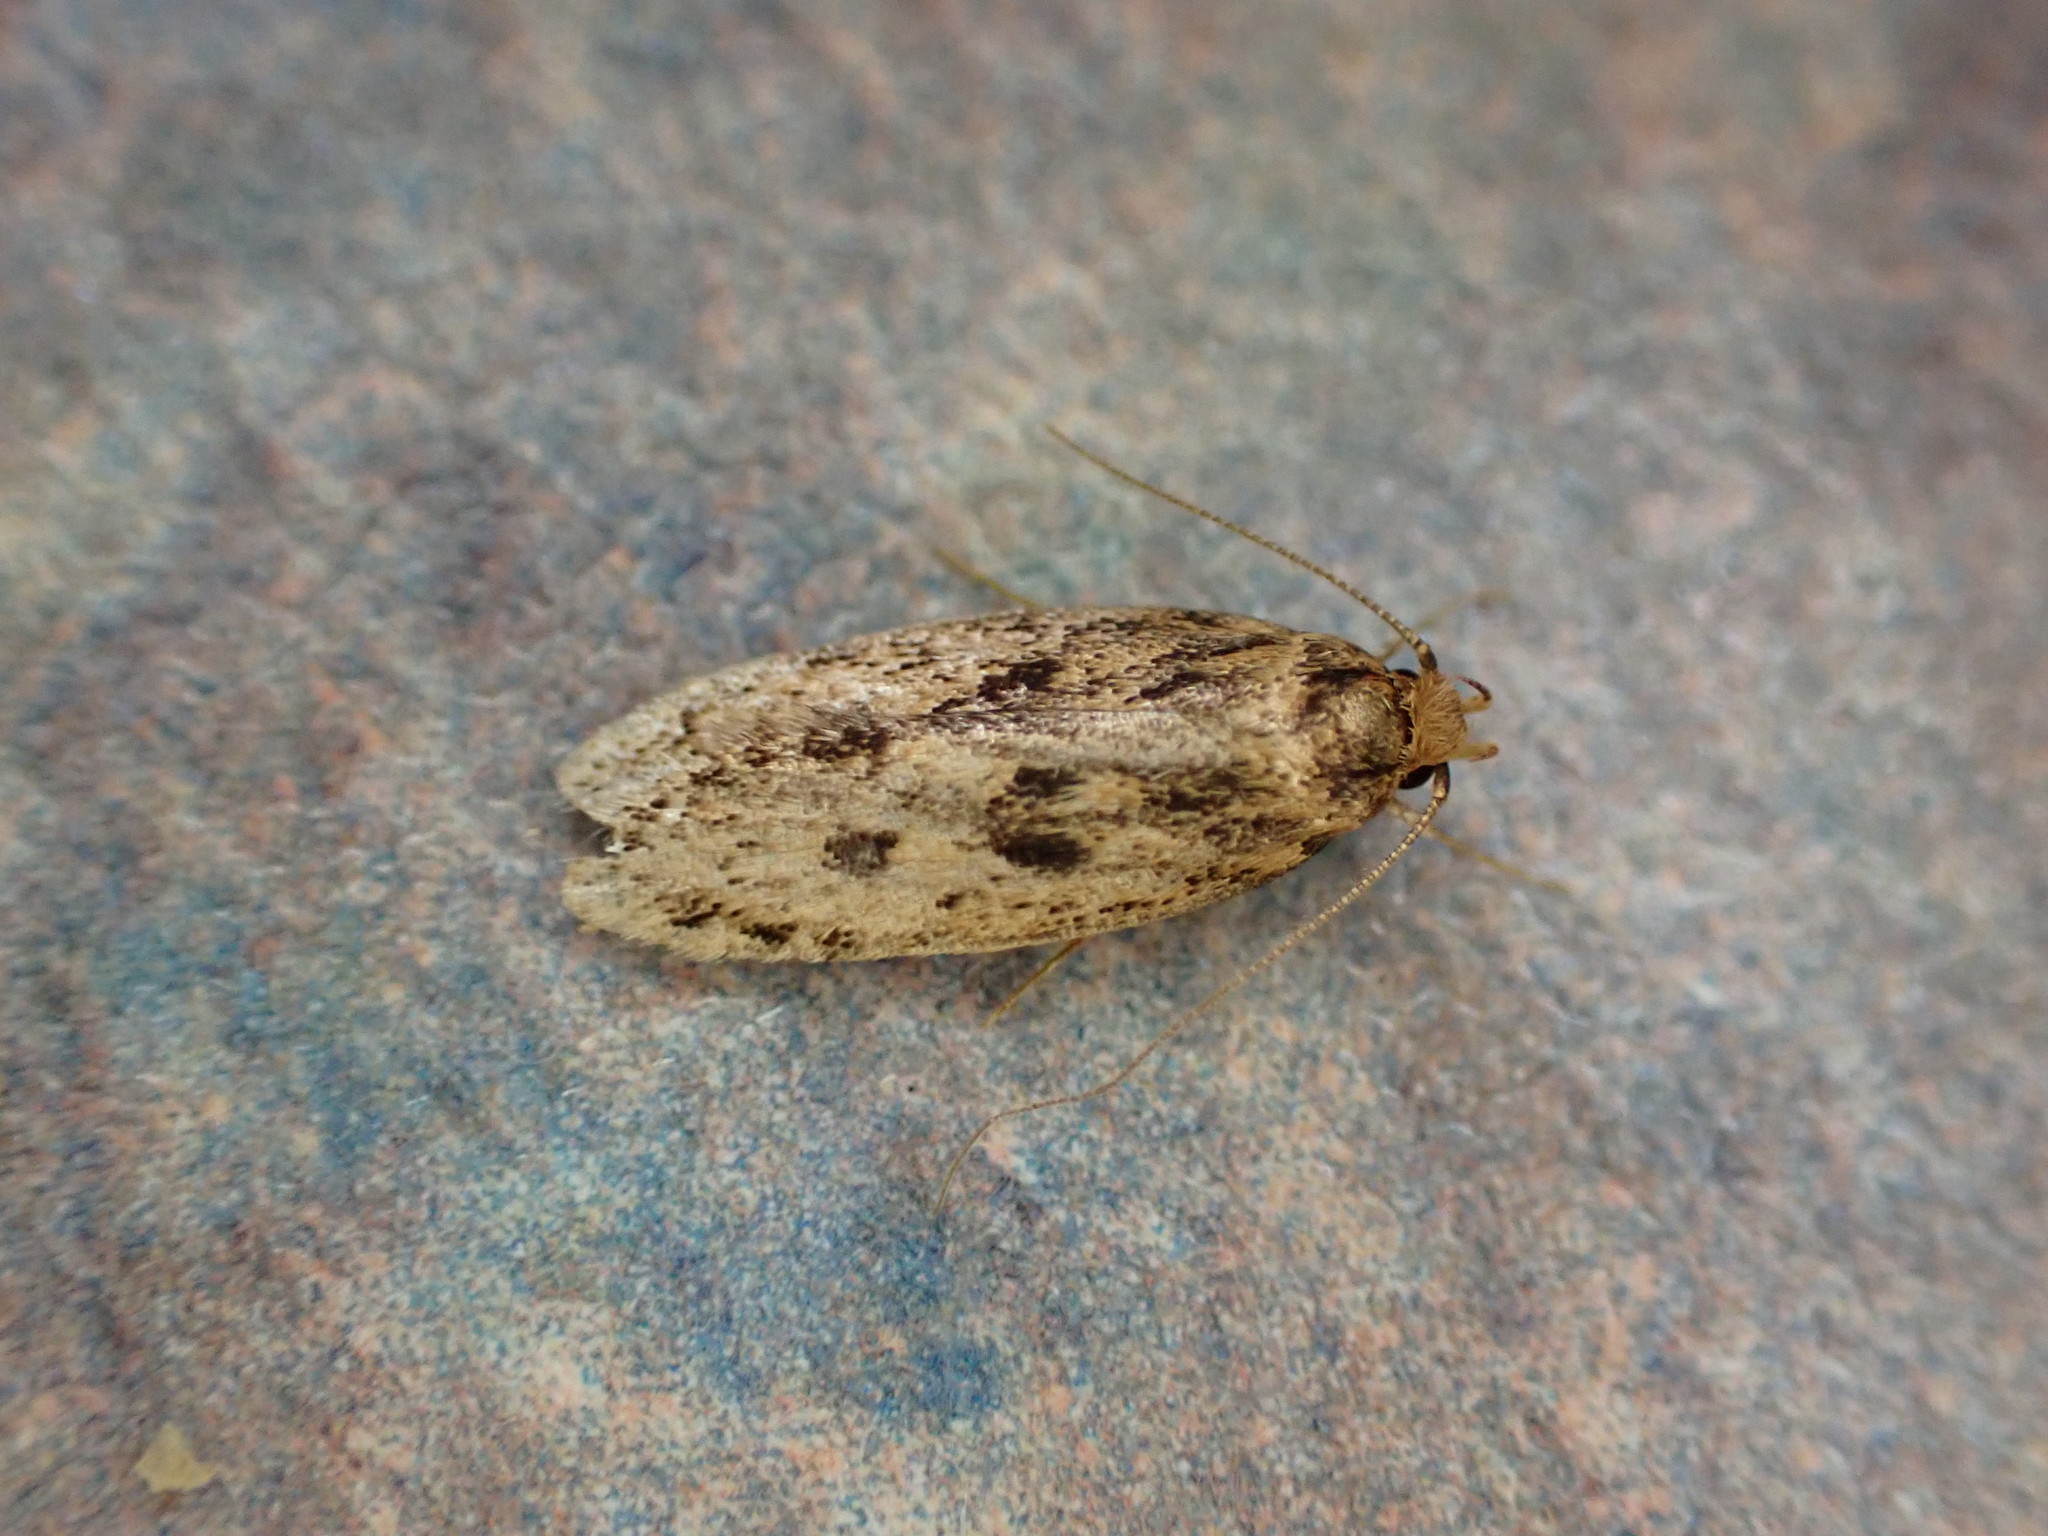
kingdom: Animalia
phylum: Arthropoda
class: Insecta
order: Lepidoptera
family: Oecophoridae
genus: Hofmannophila
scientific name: Hofmannophila pseudospretella
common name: Brown house moth
